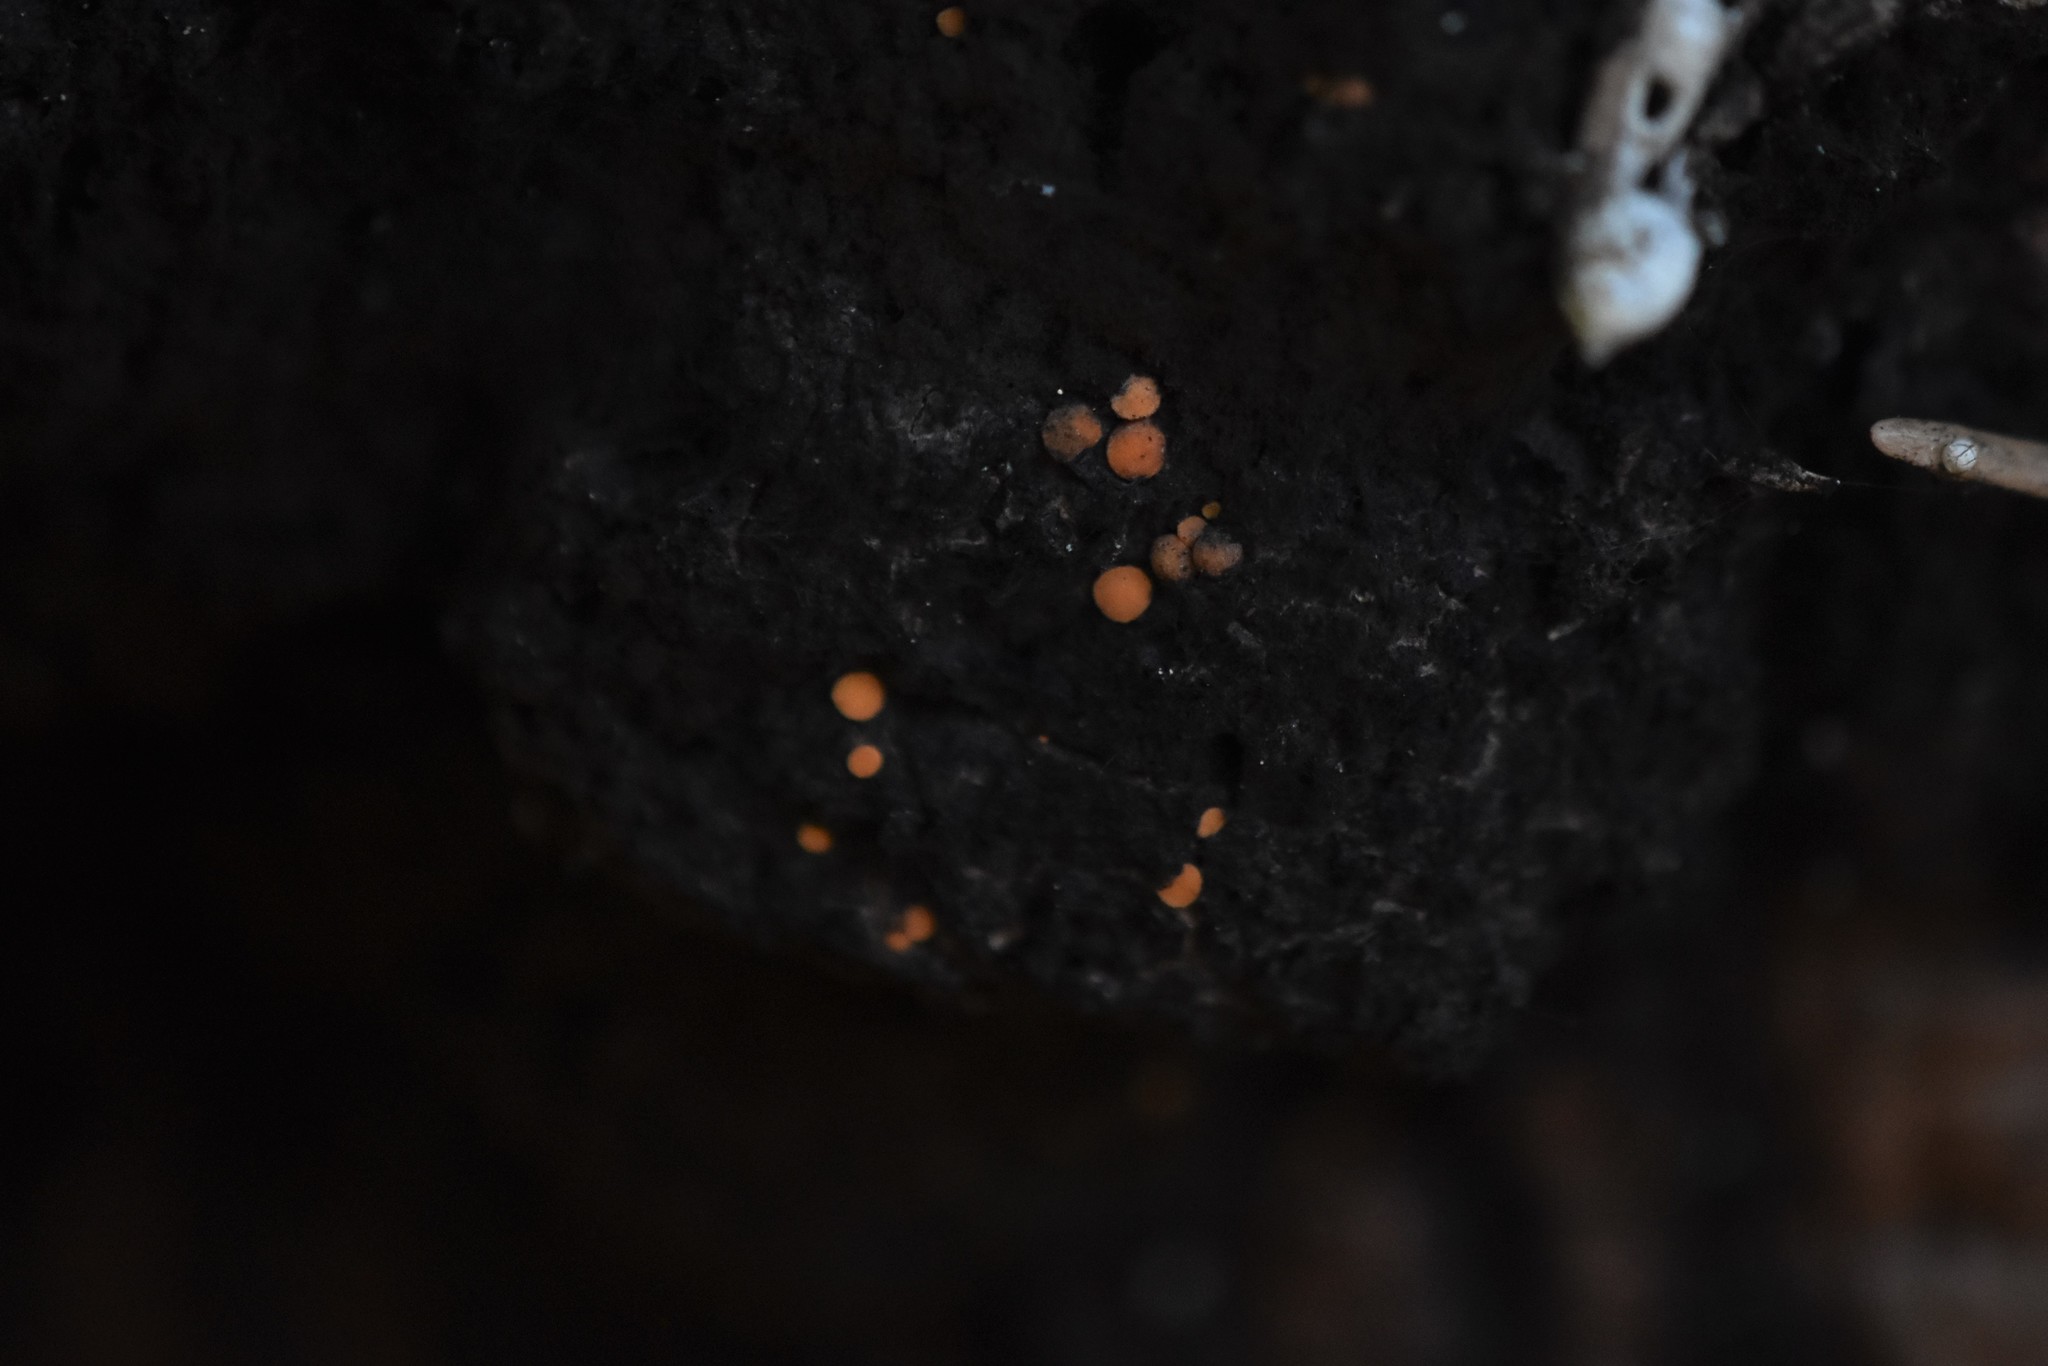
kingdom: Fungi
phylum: Ascomycota
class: Sareomycetes
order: Sareales
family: Sareaceae
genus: Sarea
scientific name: Sarea resinae
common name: Sarea lichen
